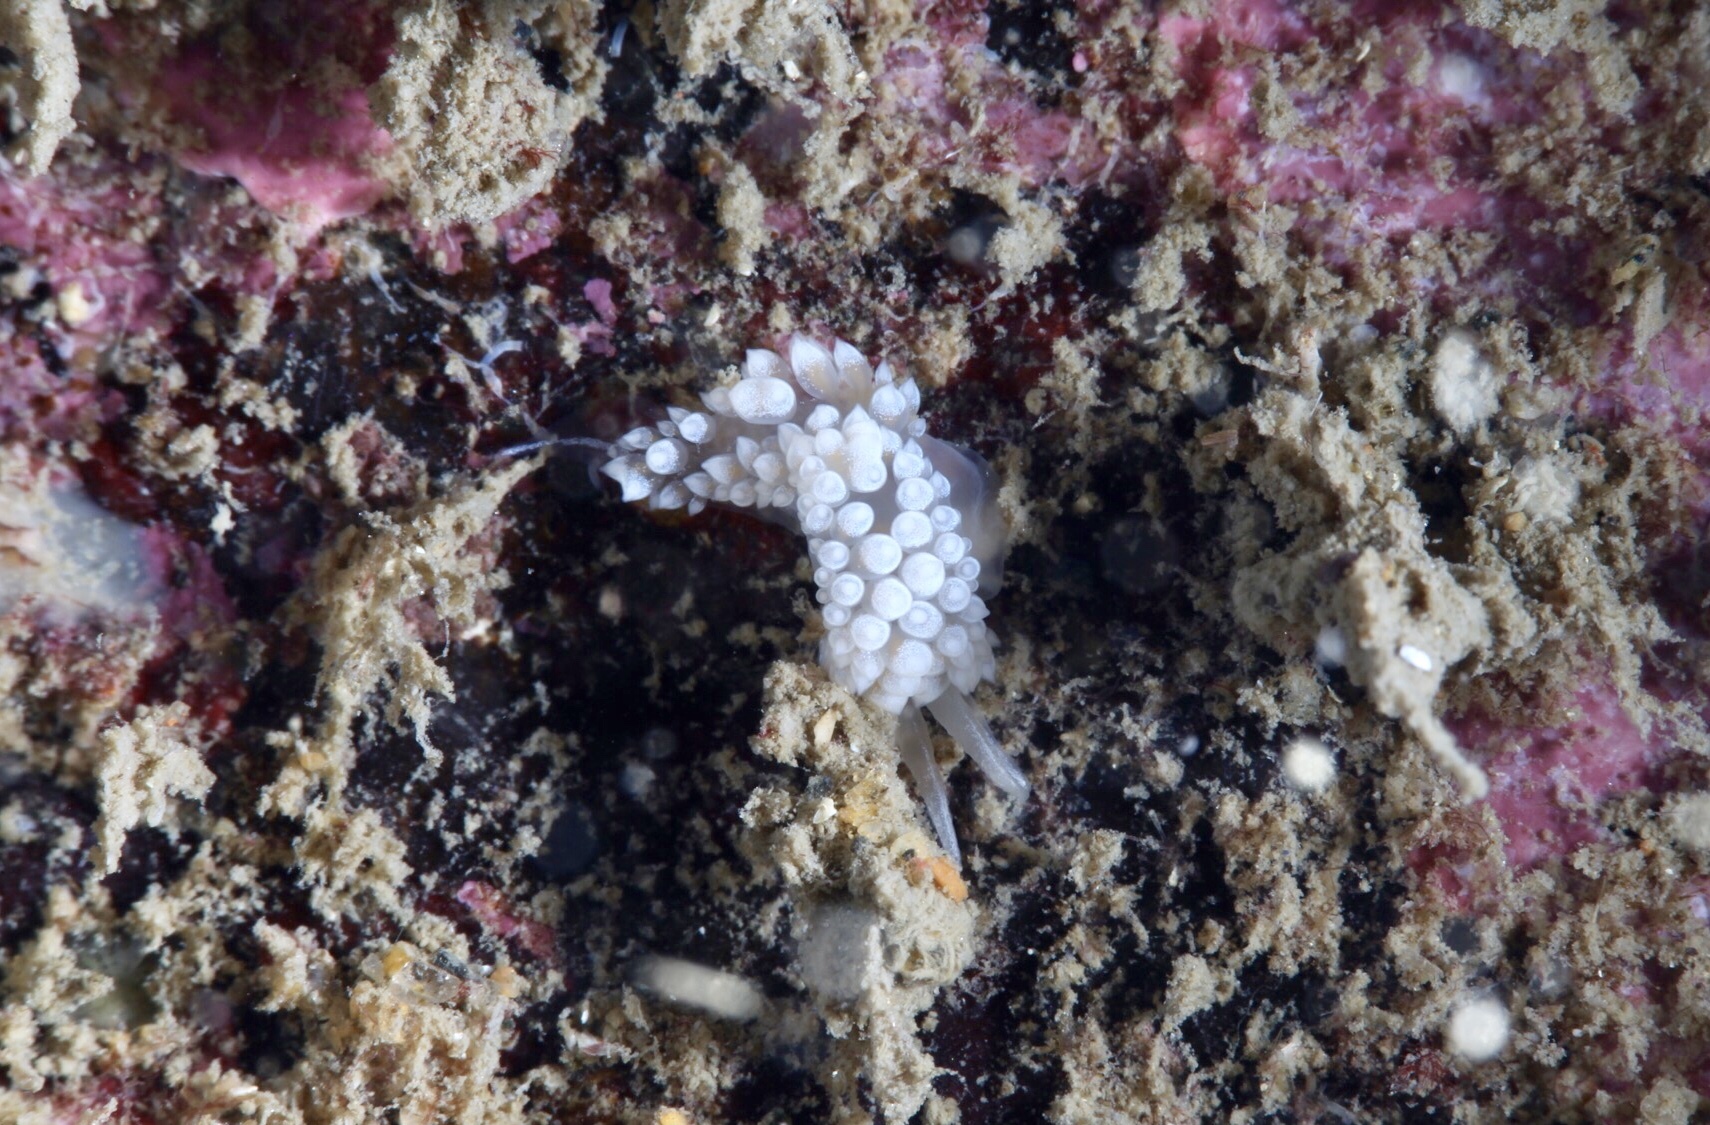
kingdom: Animalia
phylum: Mollusca
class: Gastropoda
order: Nudibranchia
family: Coryphellidae
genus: Coryphella
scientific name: Coryphella verrucosa
